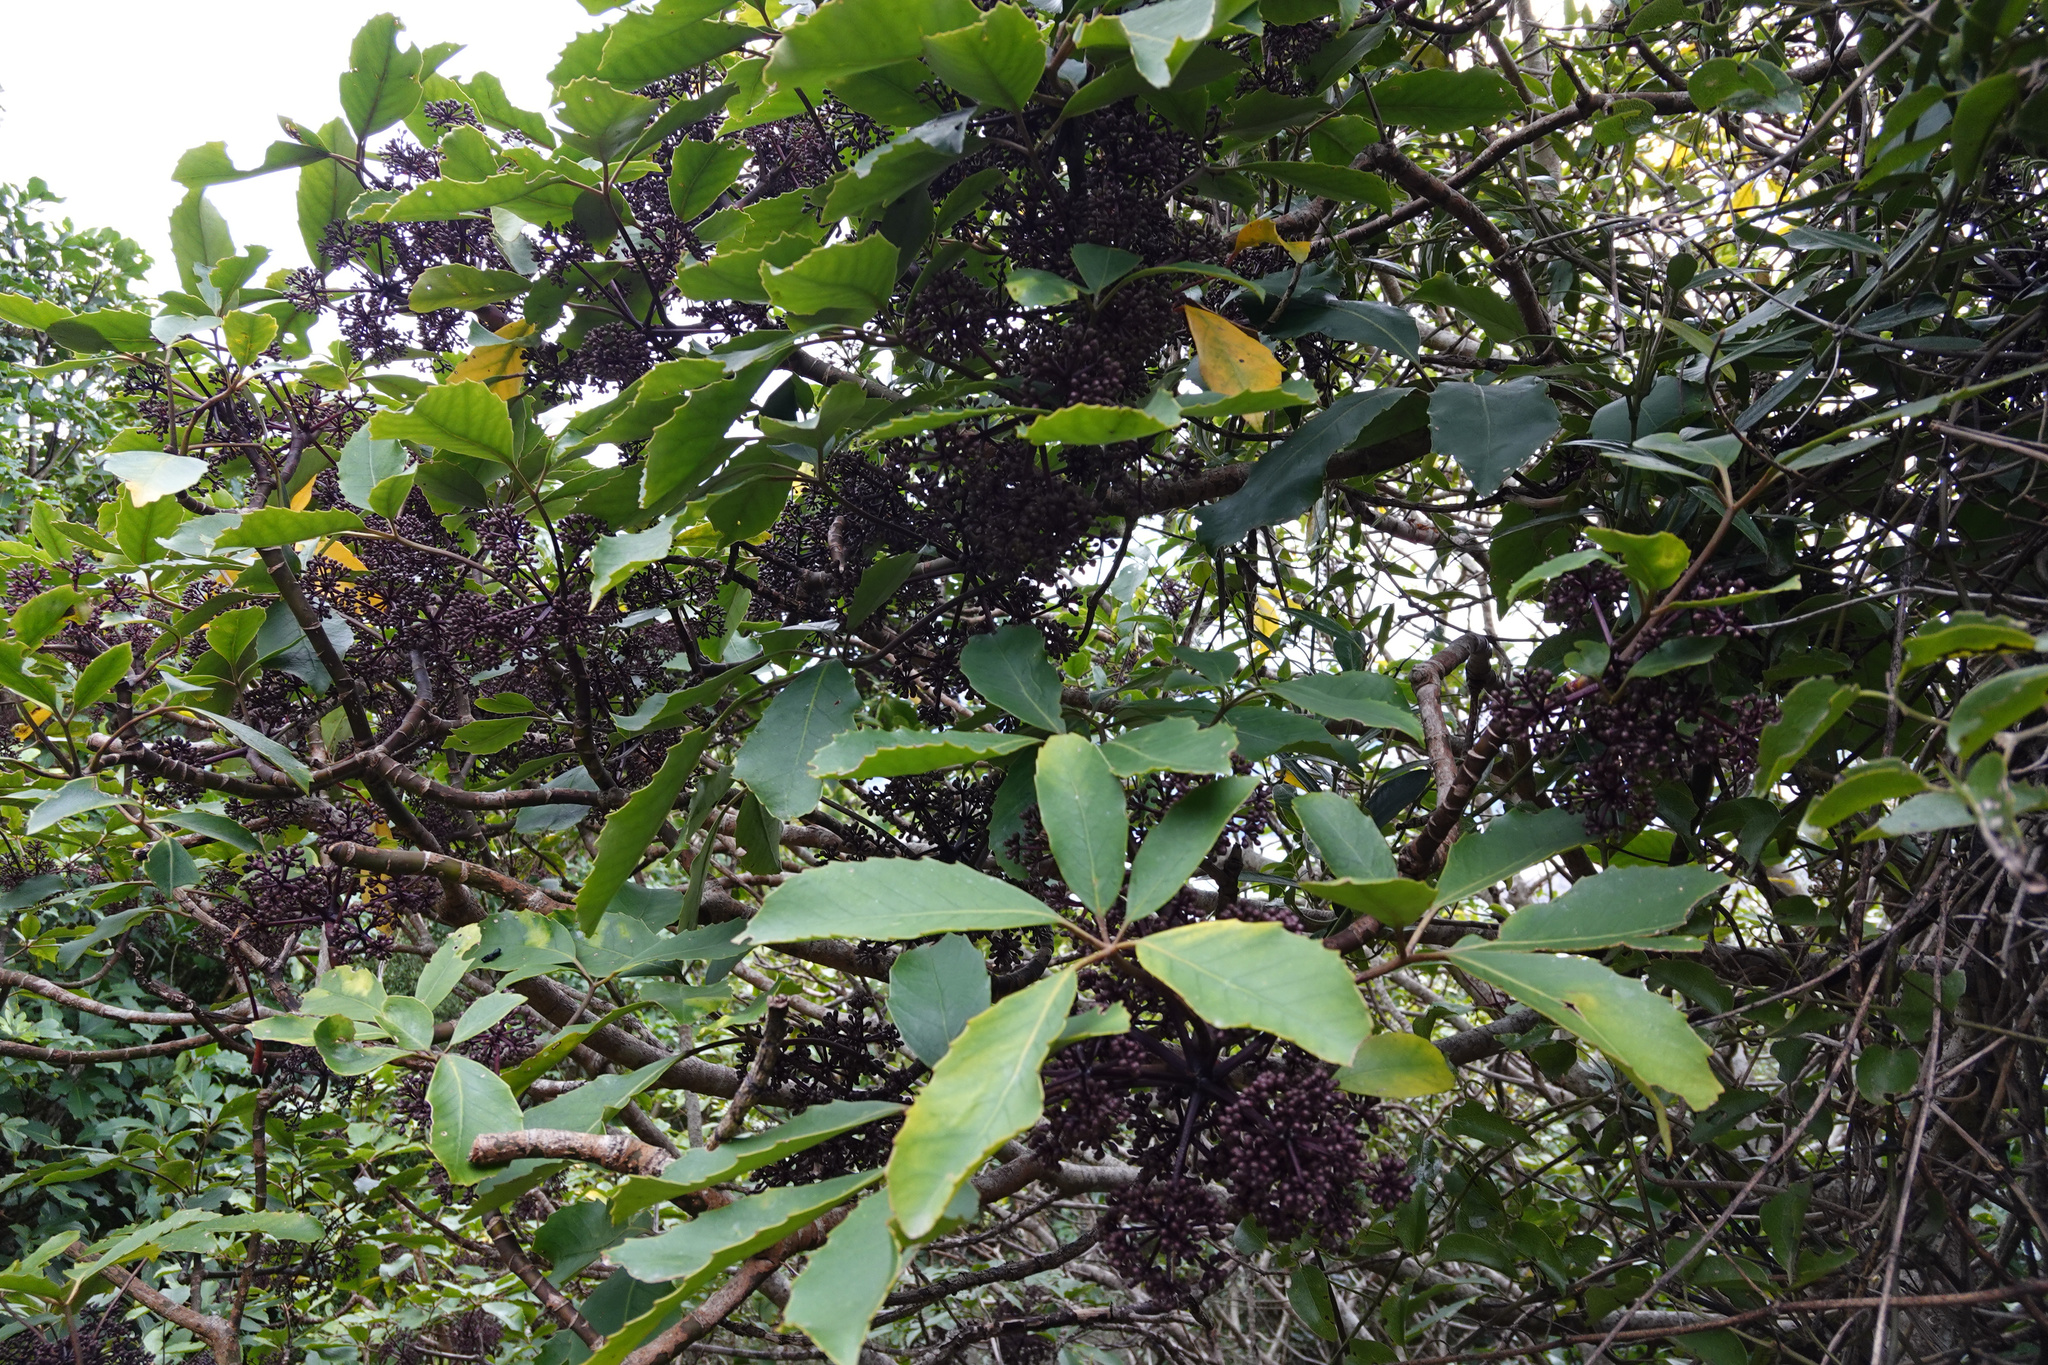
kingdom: Plantae
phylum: Tracheophyta
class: Magnoliopsida
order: Apiales
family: Araliaceae
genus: Neopanax
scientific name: Neopanax arboreus
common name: Five-fingers
